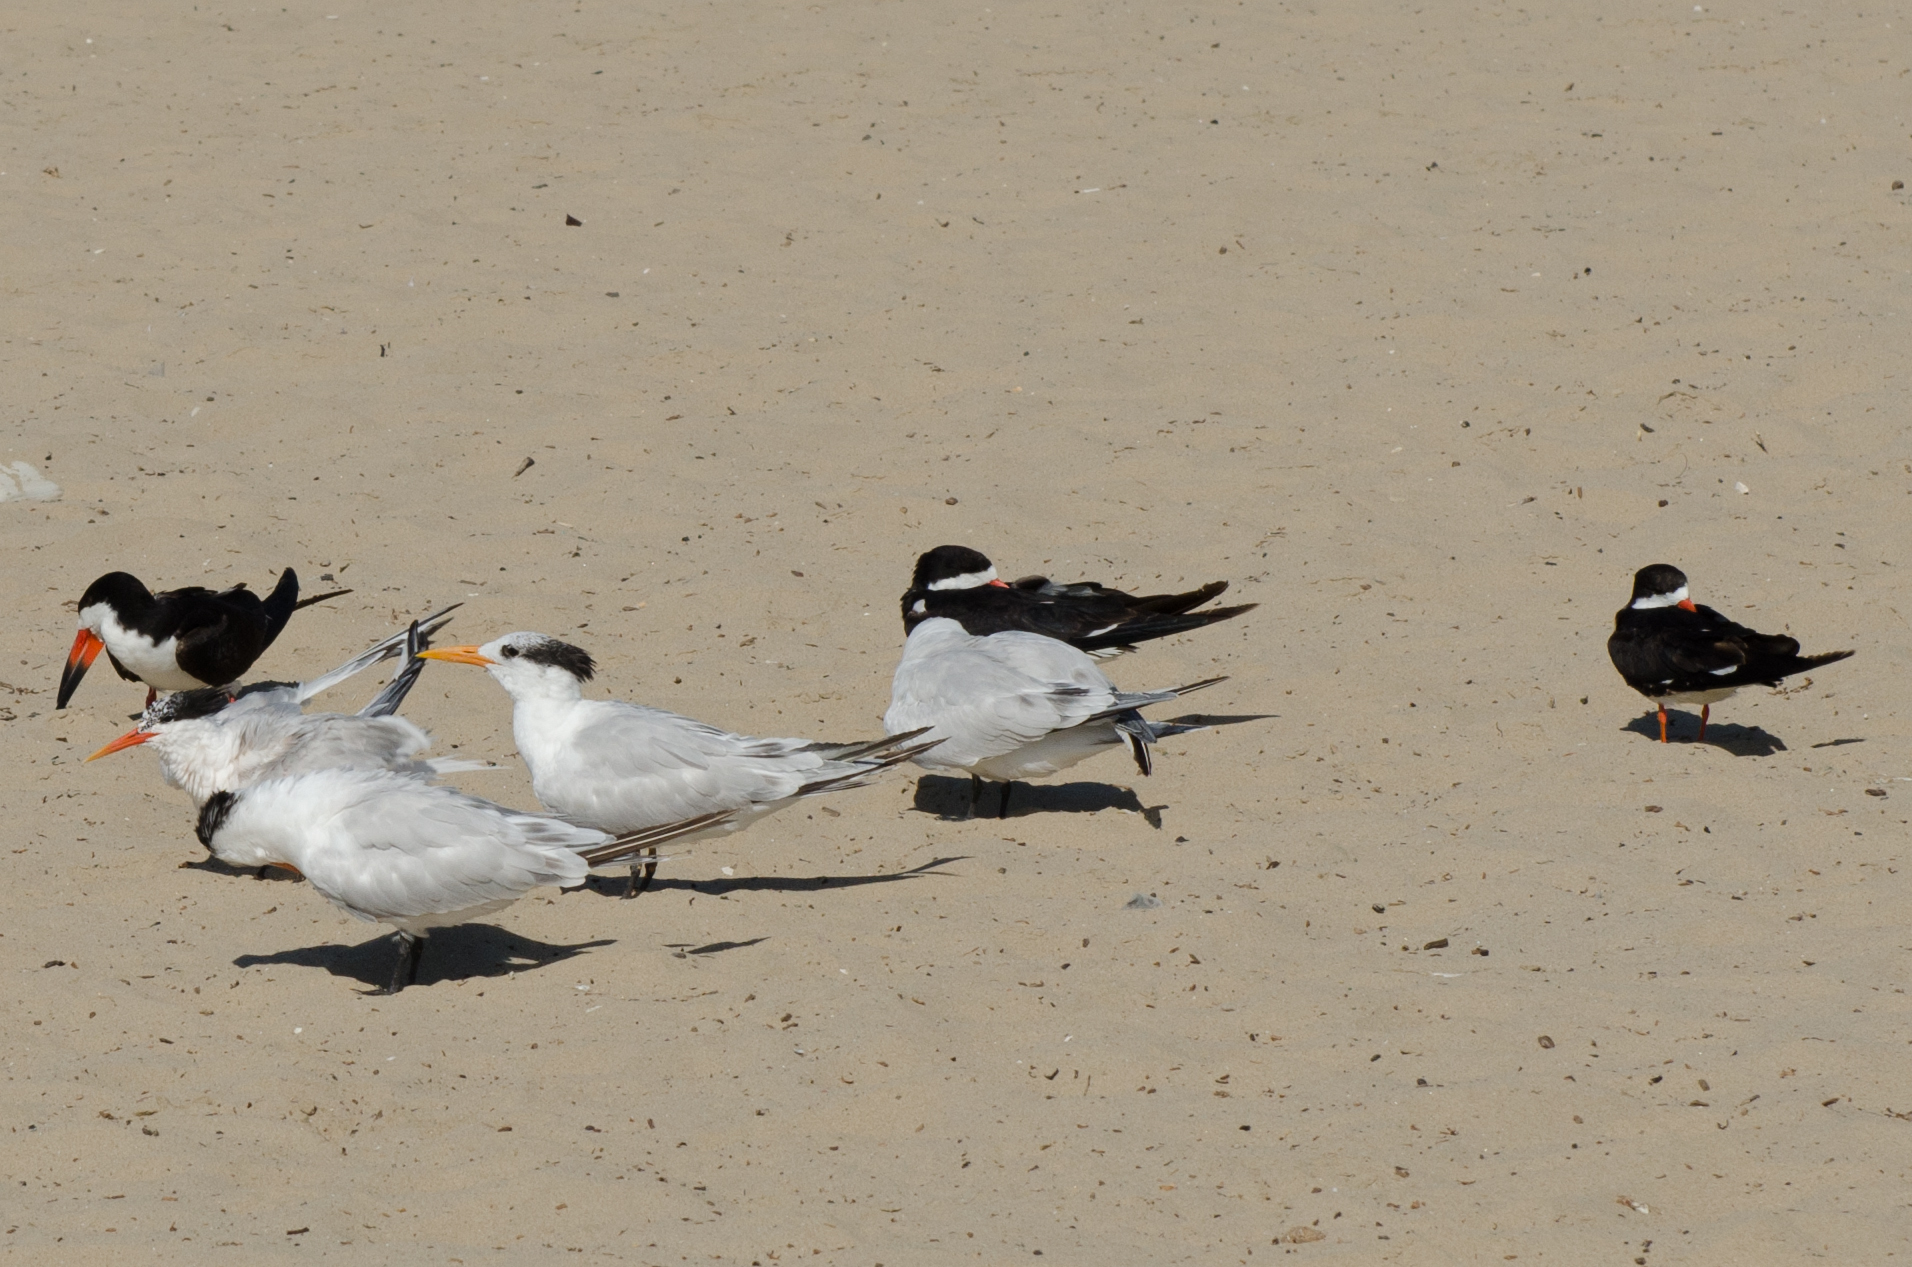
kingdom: Animalia
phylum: Chordata
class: Aves
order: Charadriiformes
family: Laridae
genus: Rynchops
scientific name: Rynchops niger
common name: Black skimmer
